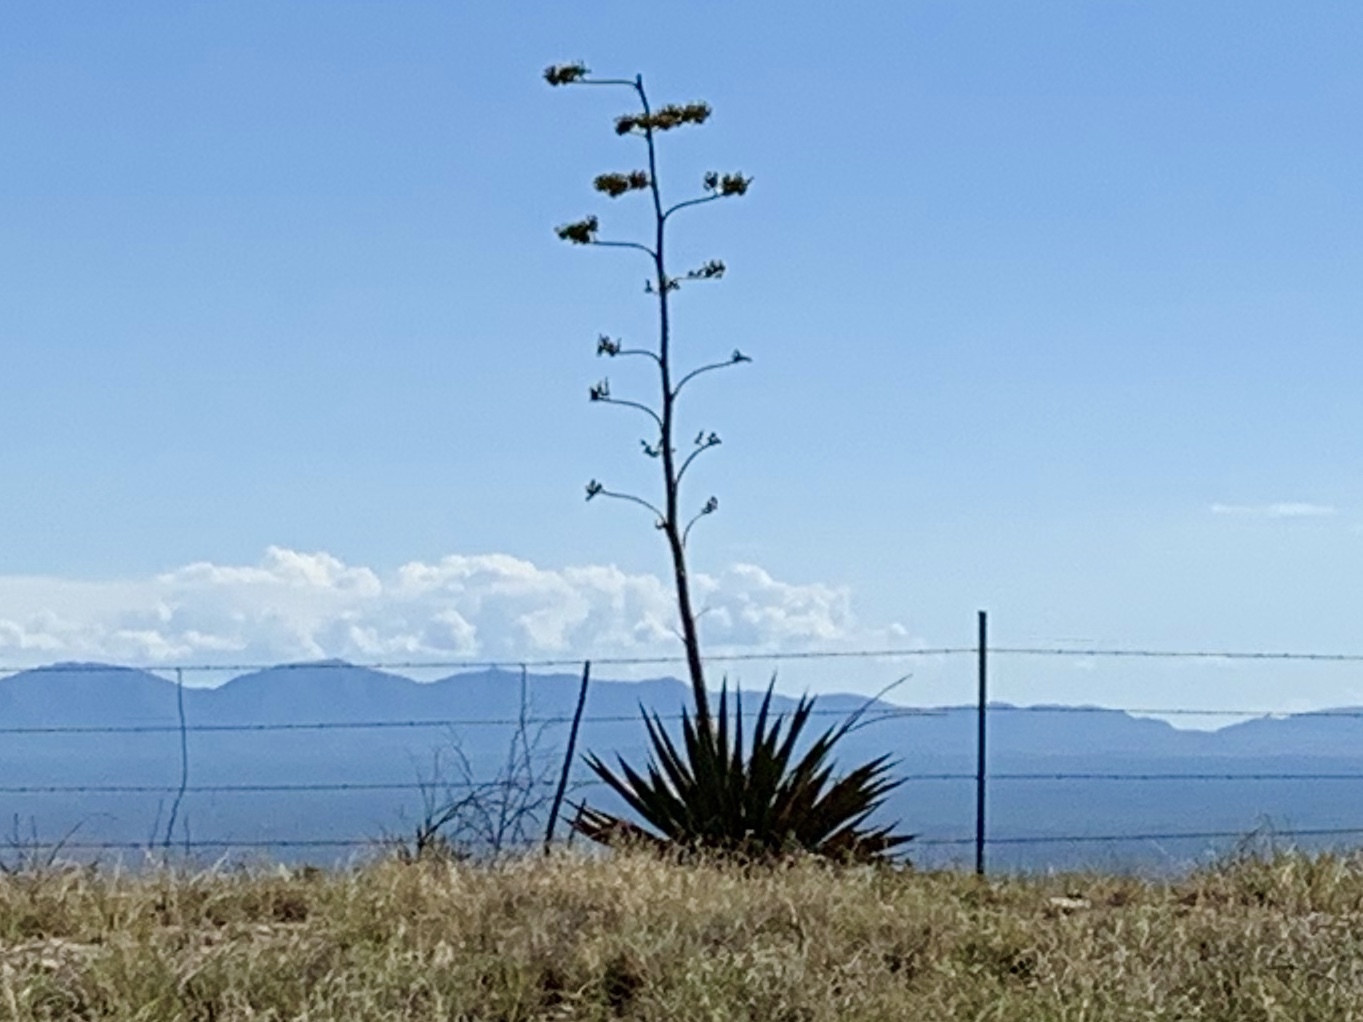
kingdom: Plantae
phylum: Tracheophyta
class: Liliopsida
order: Asparagales
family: Asparagaceae
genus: Agave
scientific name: Agave palmeri
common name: Palmer agave
